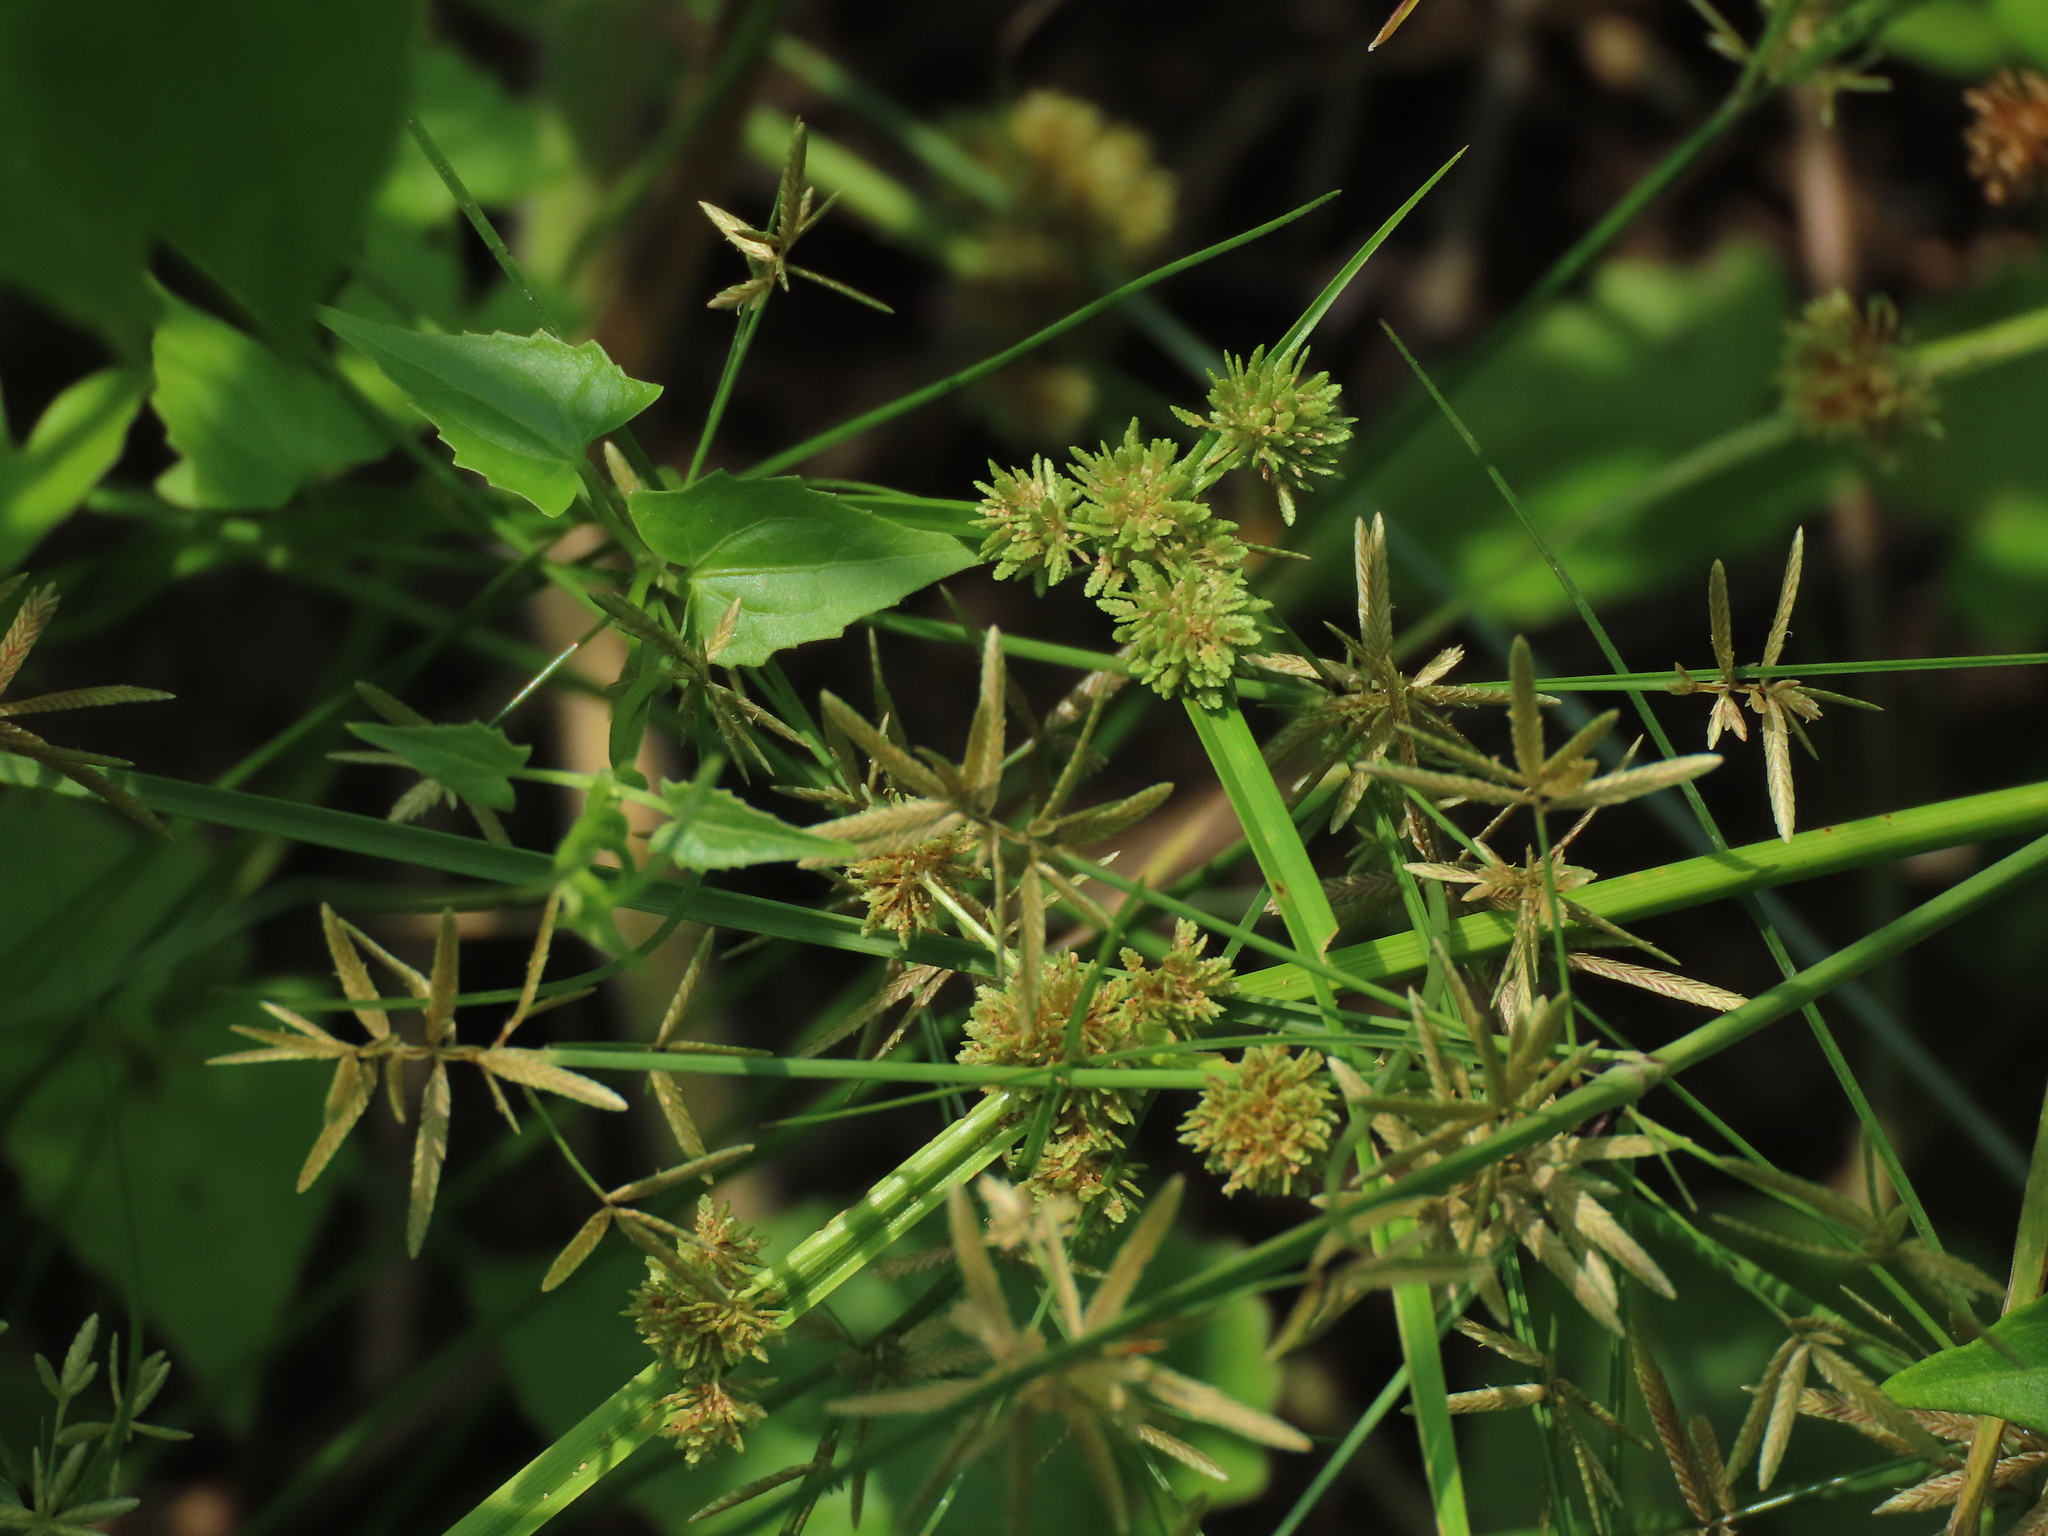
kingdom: Plantae
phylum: Tracheophyta
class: Liliopsida
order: Poales
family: Cyperaceae
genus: Cyperus
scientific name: Cyperus difformis
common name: Variable flatsedge
